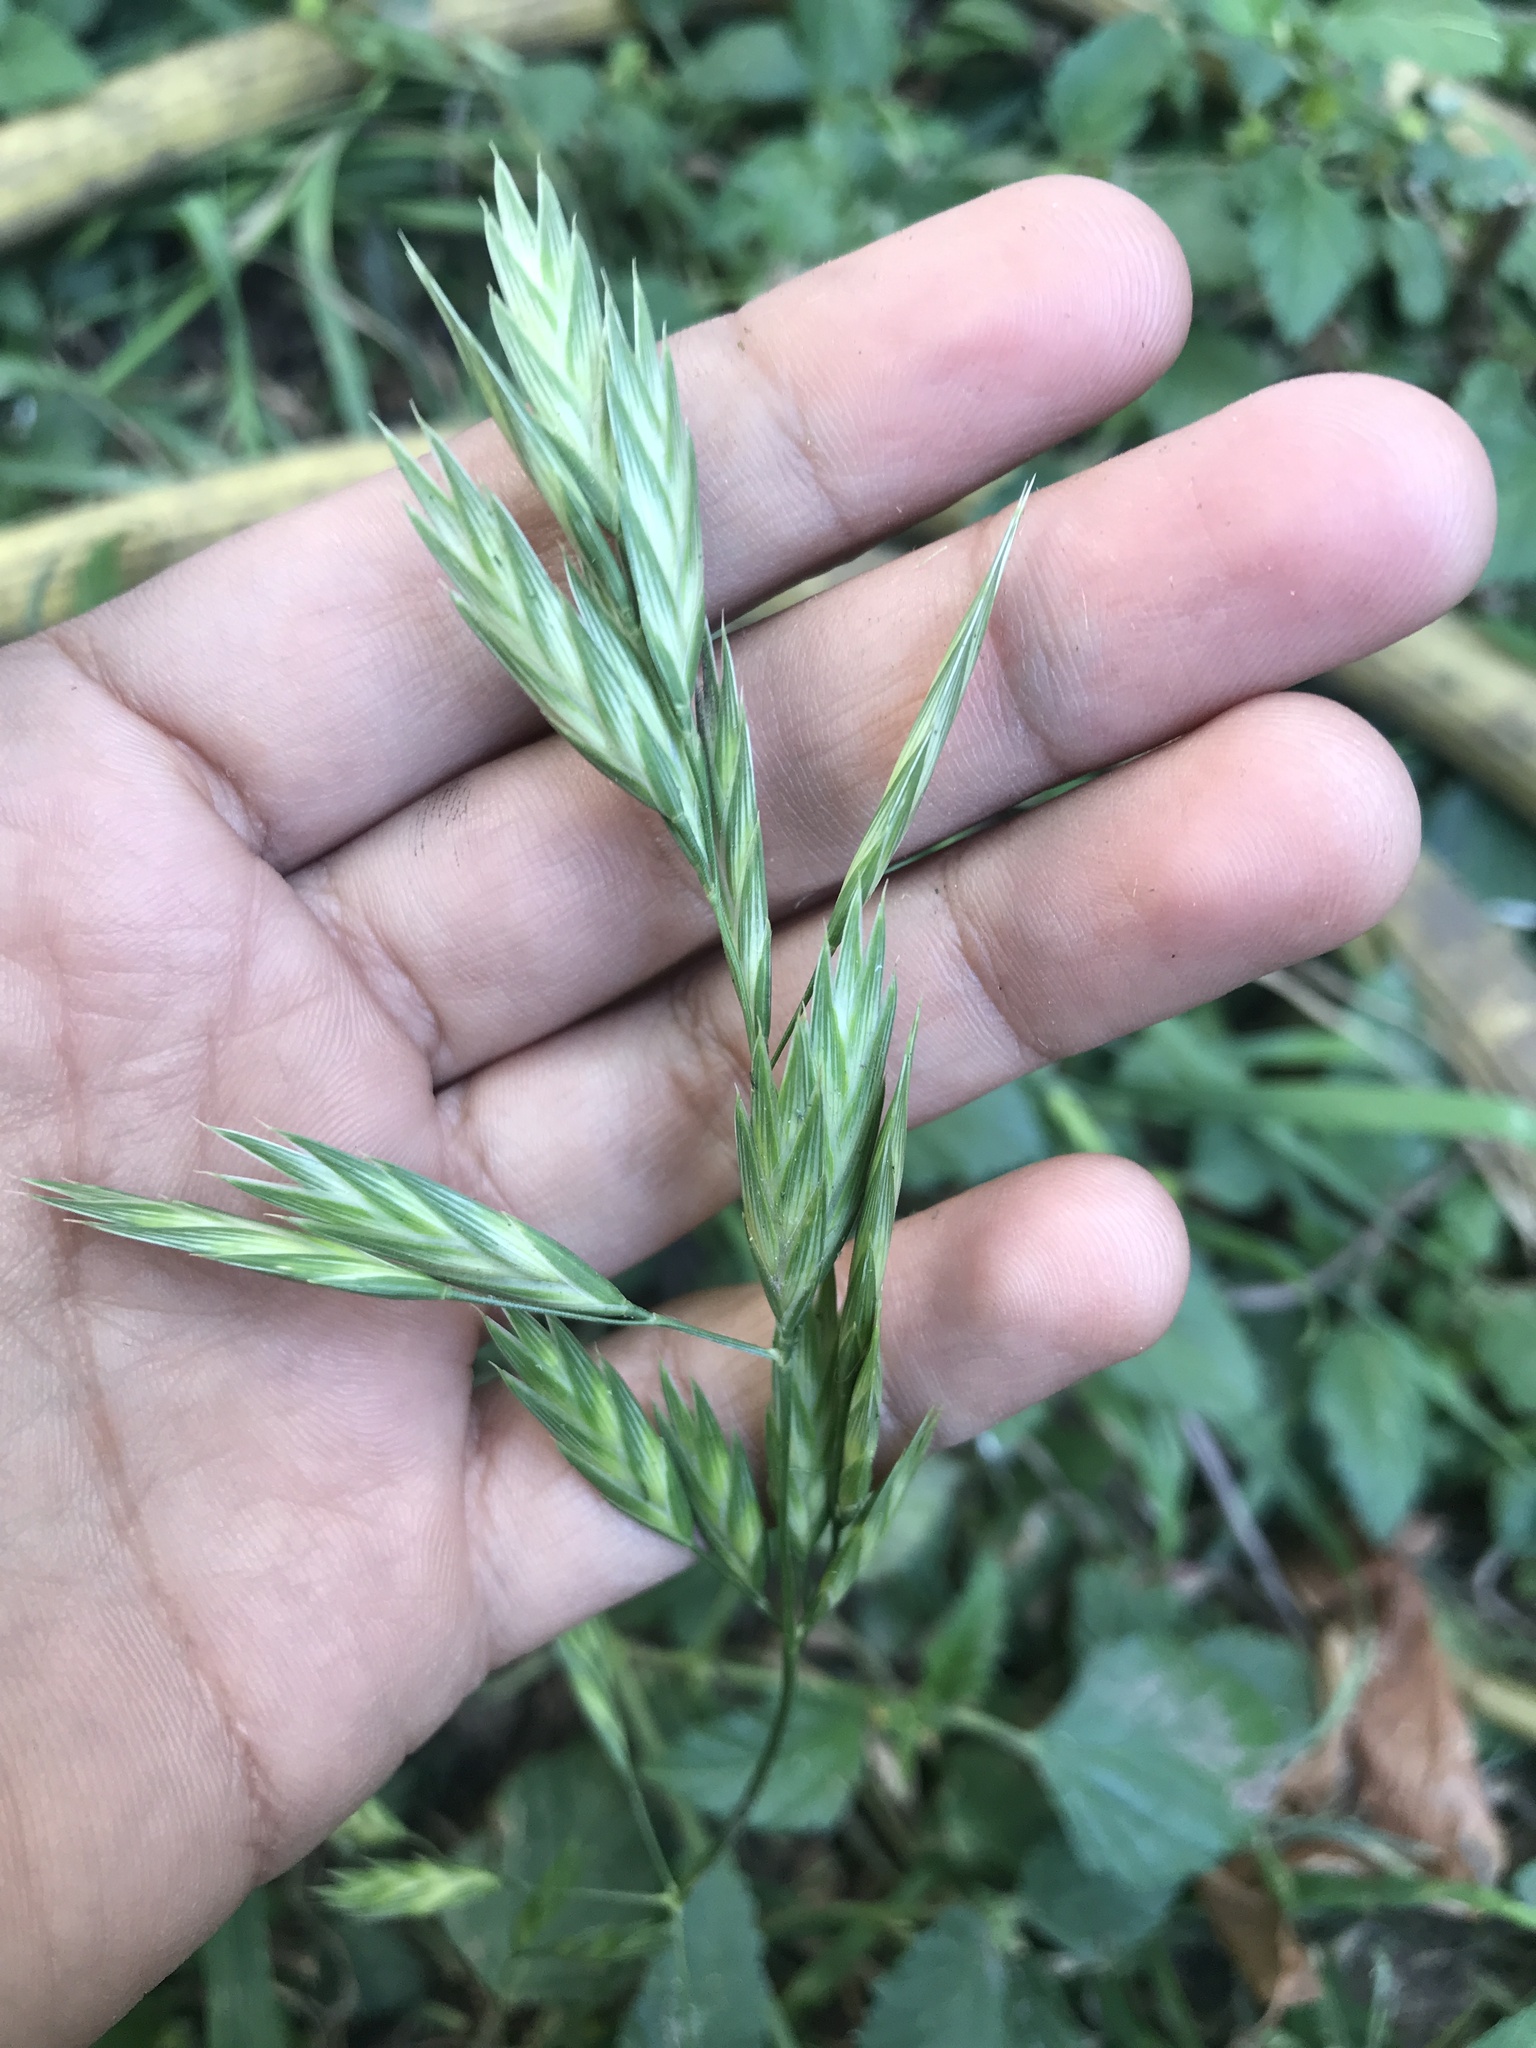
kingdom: Plantae
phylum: Tracheophyta
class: Liliopsida
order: Poales
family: Poaceae
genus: Bromus
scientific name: Bromus catharticus
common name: Rescuegrass
